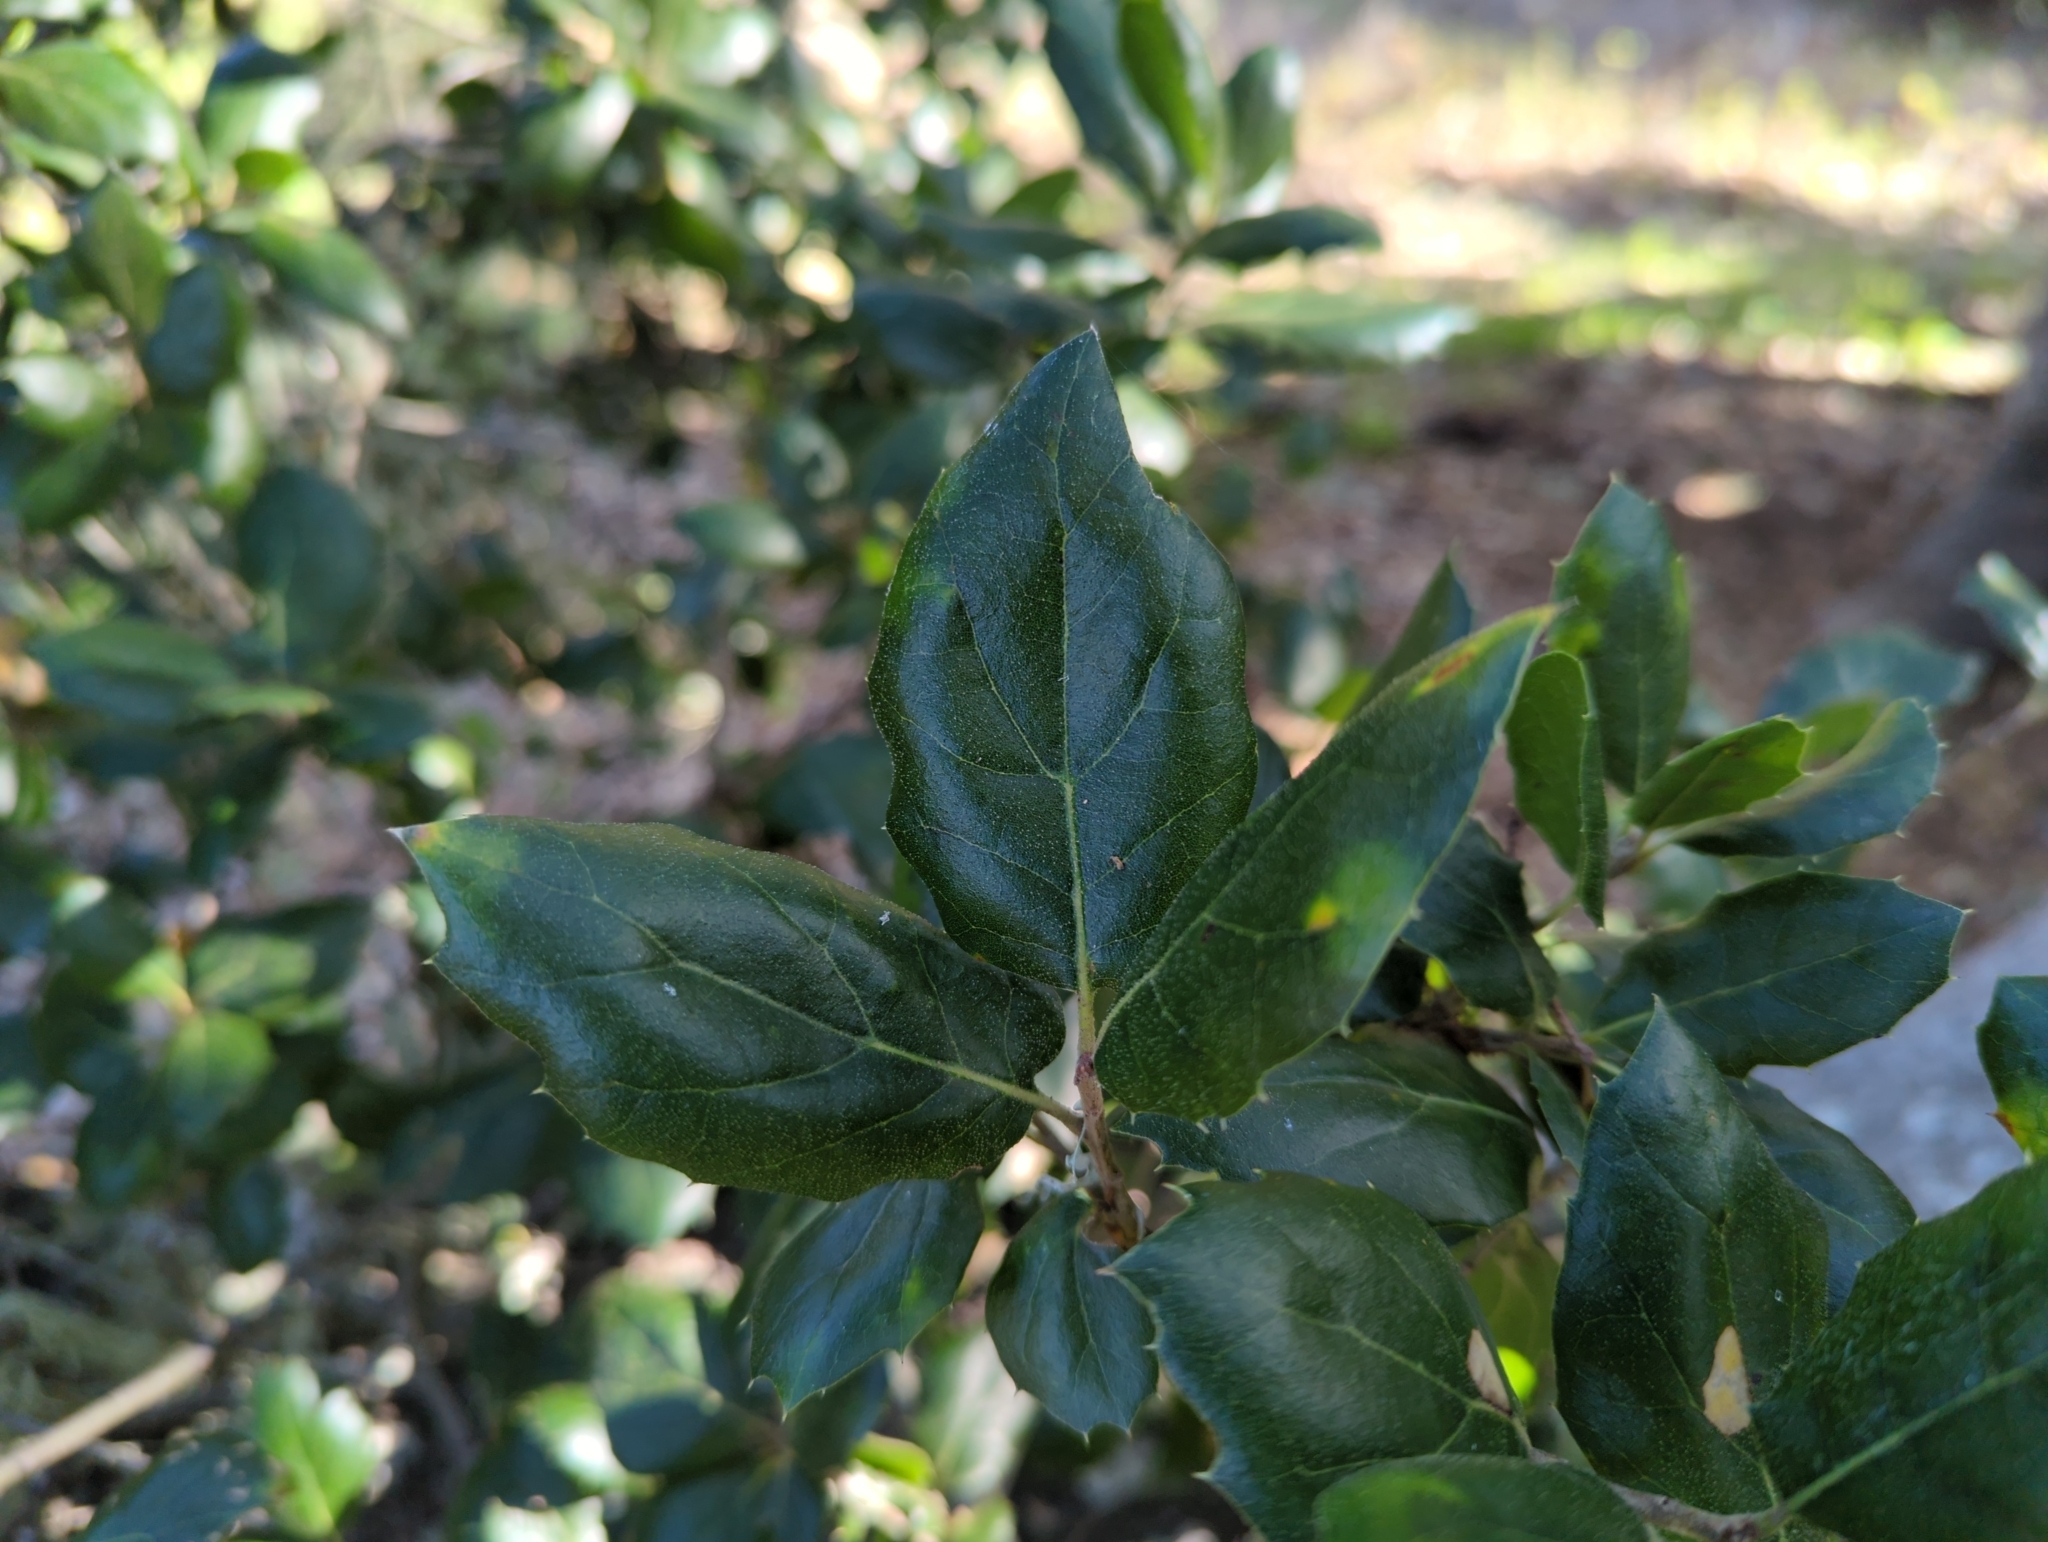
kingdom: Plantae
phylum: Tracheophyta
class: Magnoliopsida
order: Fagales
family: Fagaceae
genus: Quercus
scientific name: Quercus agrifolia
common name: California live oak
